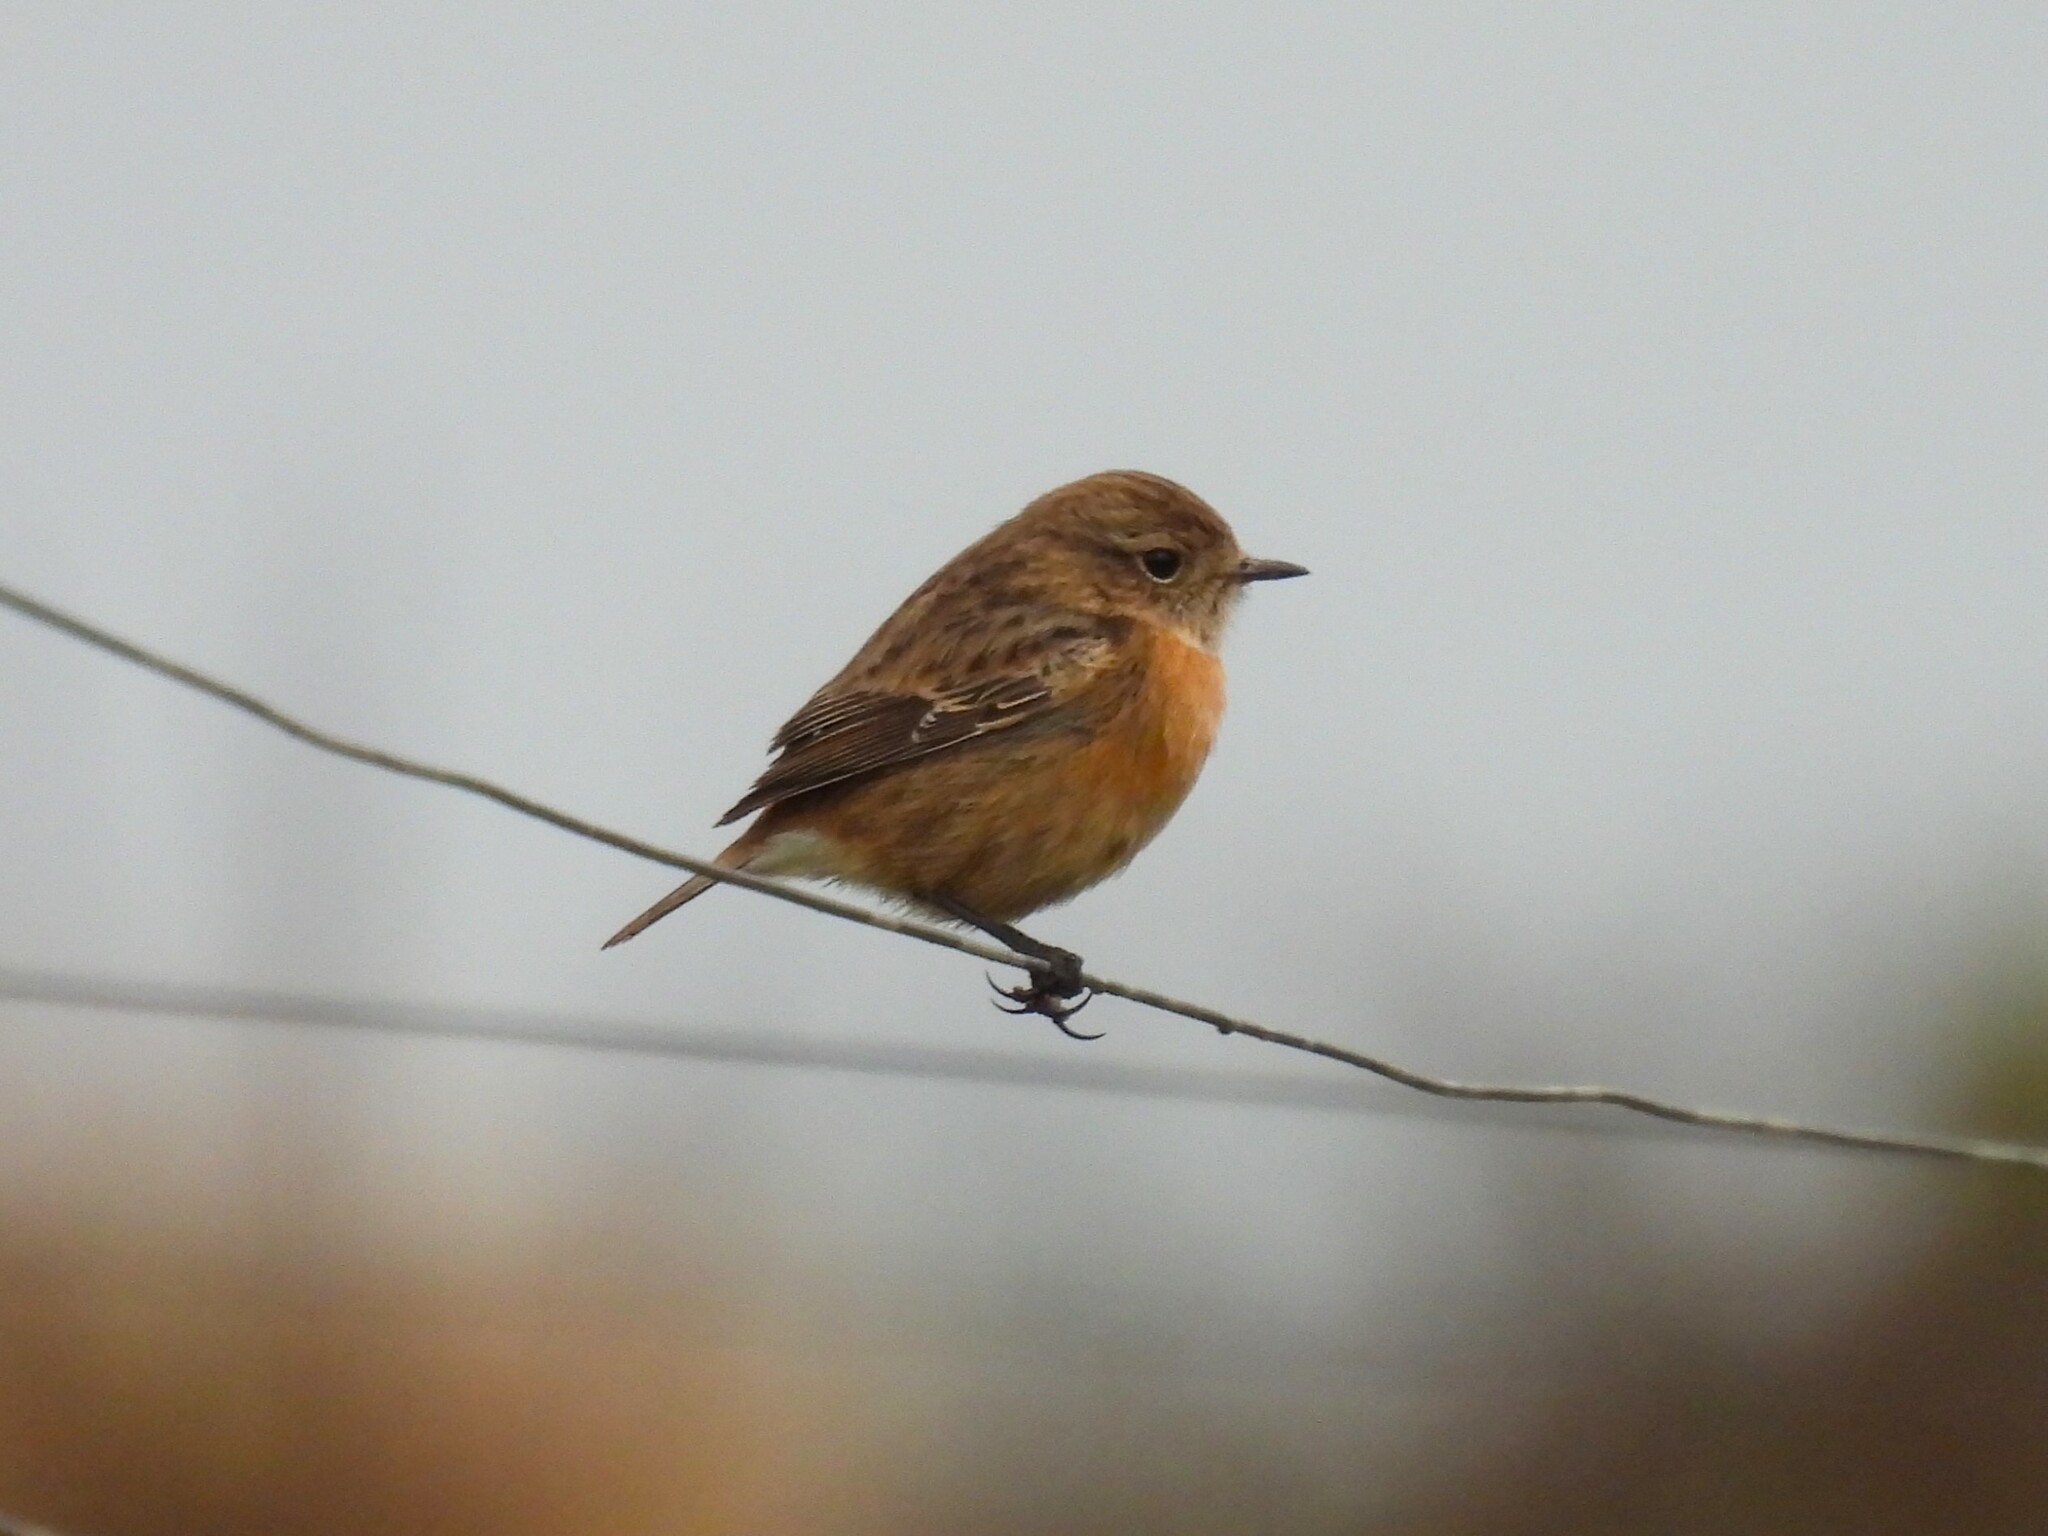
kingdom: Animalia
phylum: Chordata
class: Aves
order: Passeriformes
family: Muscicapidae
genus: Saxicola
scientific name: Saxicola rubicola
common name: European stonechat
